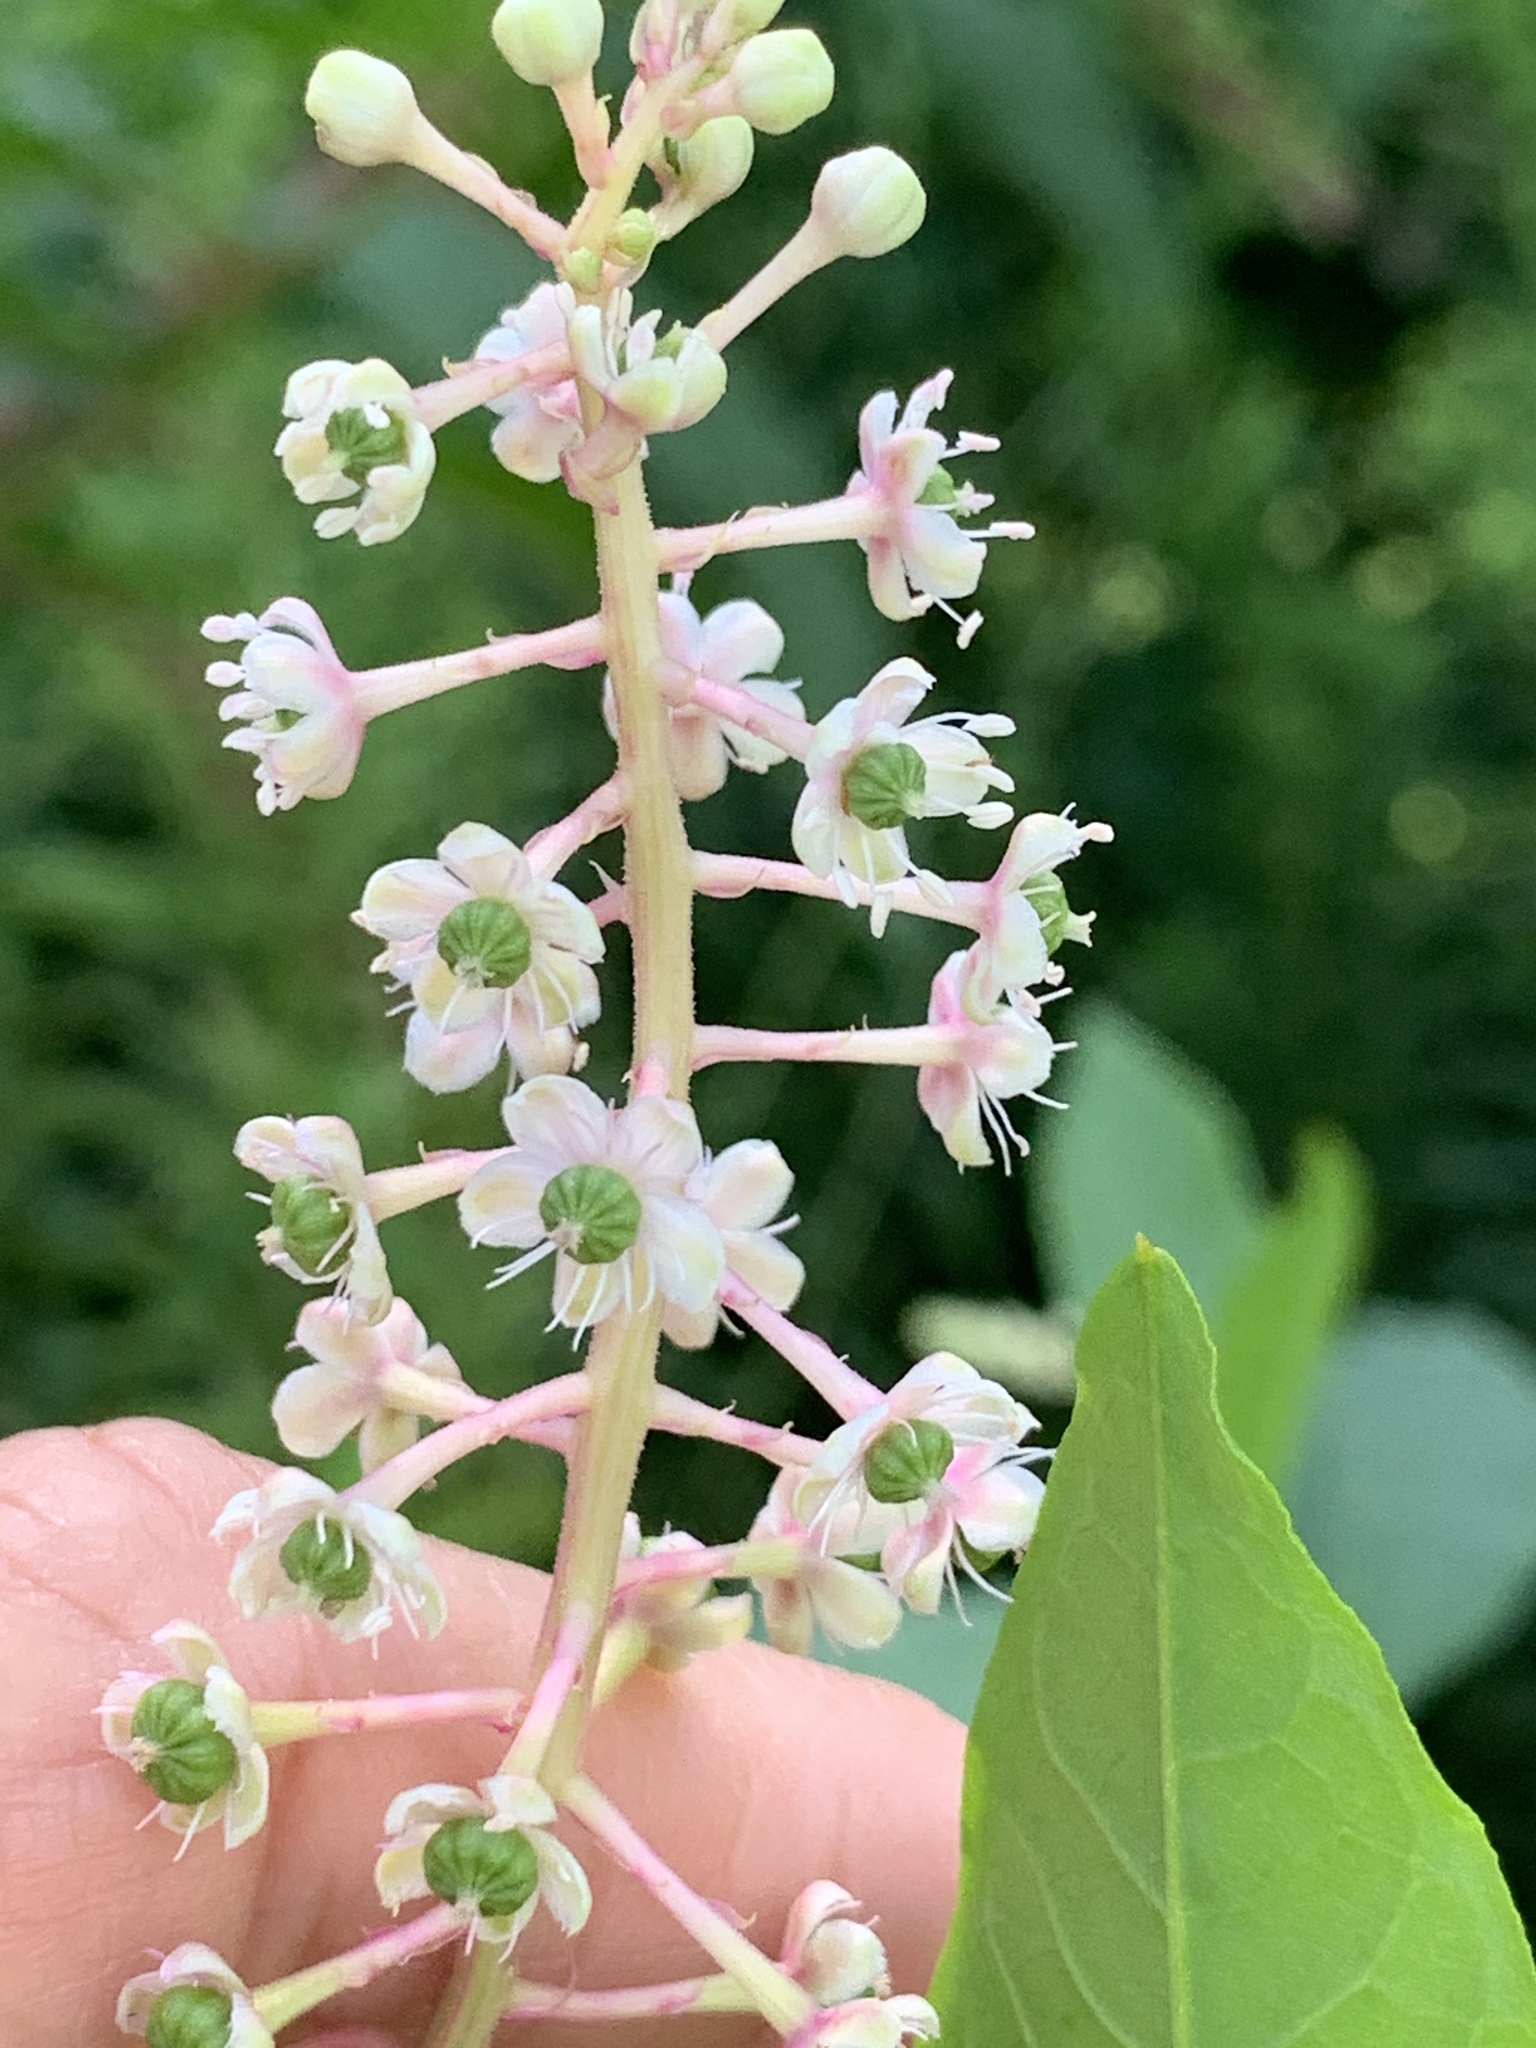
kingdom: Plantae
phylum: Tracheophyta
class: Magnoliopsida
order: Caryophyllales
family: Phytolaccaceae
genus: Phytolacca
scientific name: Phytolacca americana
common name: American pokeweed
